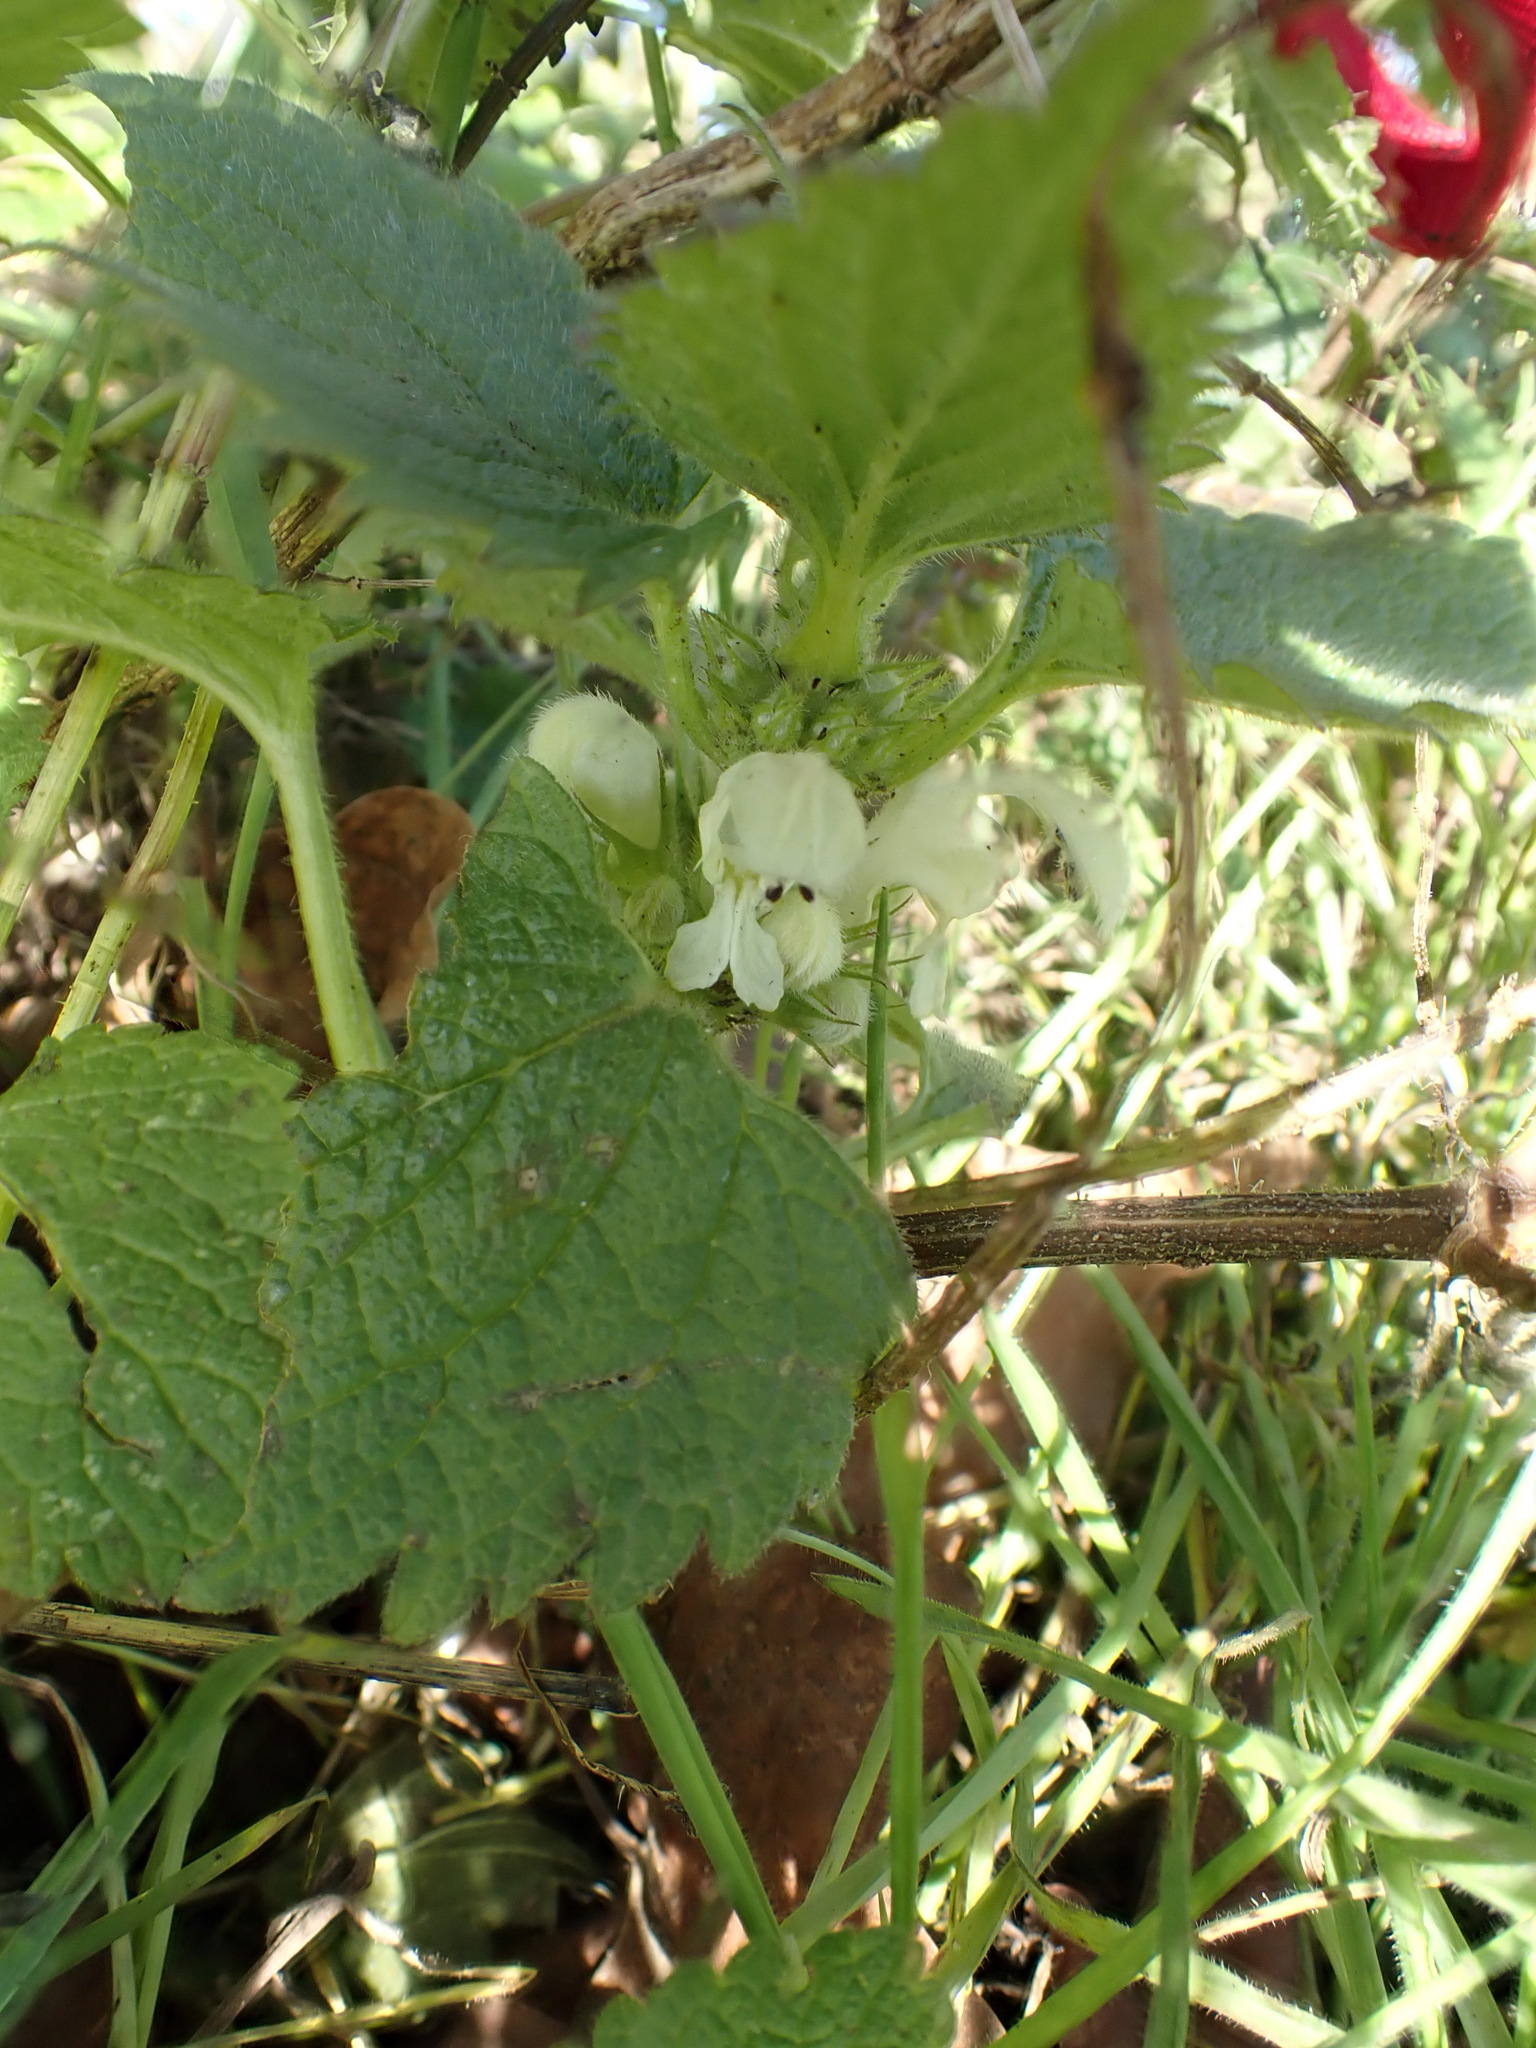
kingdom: Plantae
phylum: Tracheophyta
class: Magnoliopsida
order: Lamiales
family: Lamiaceae
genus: Lamium
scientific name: Lamium album
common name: White dead-nettle
